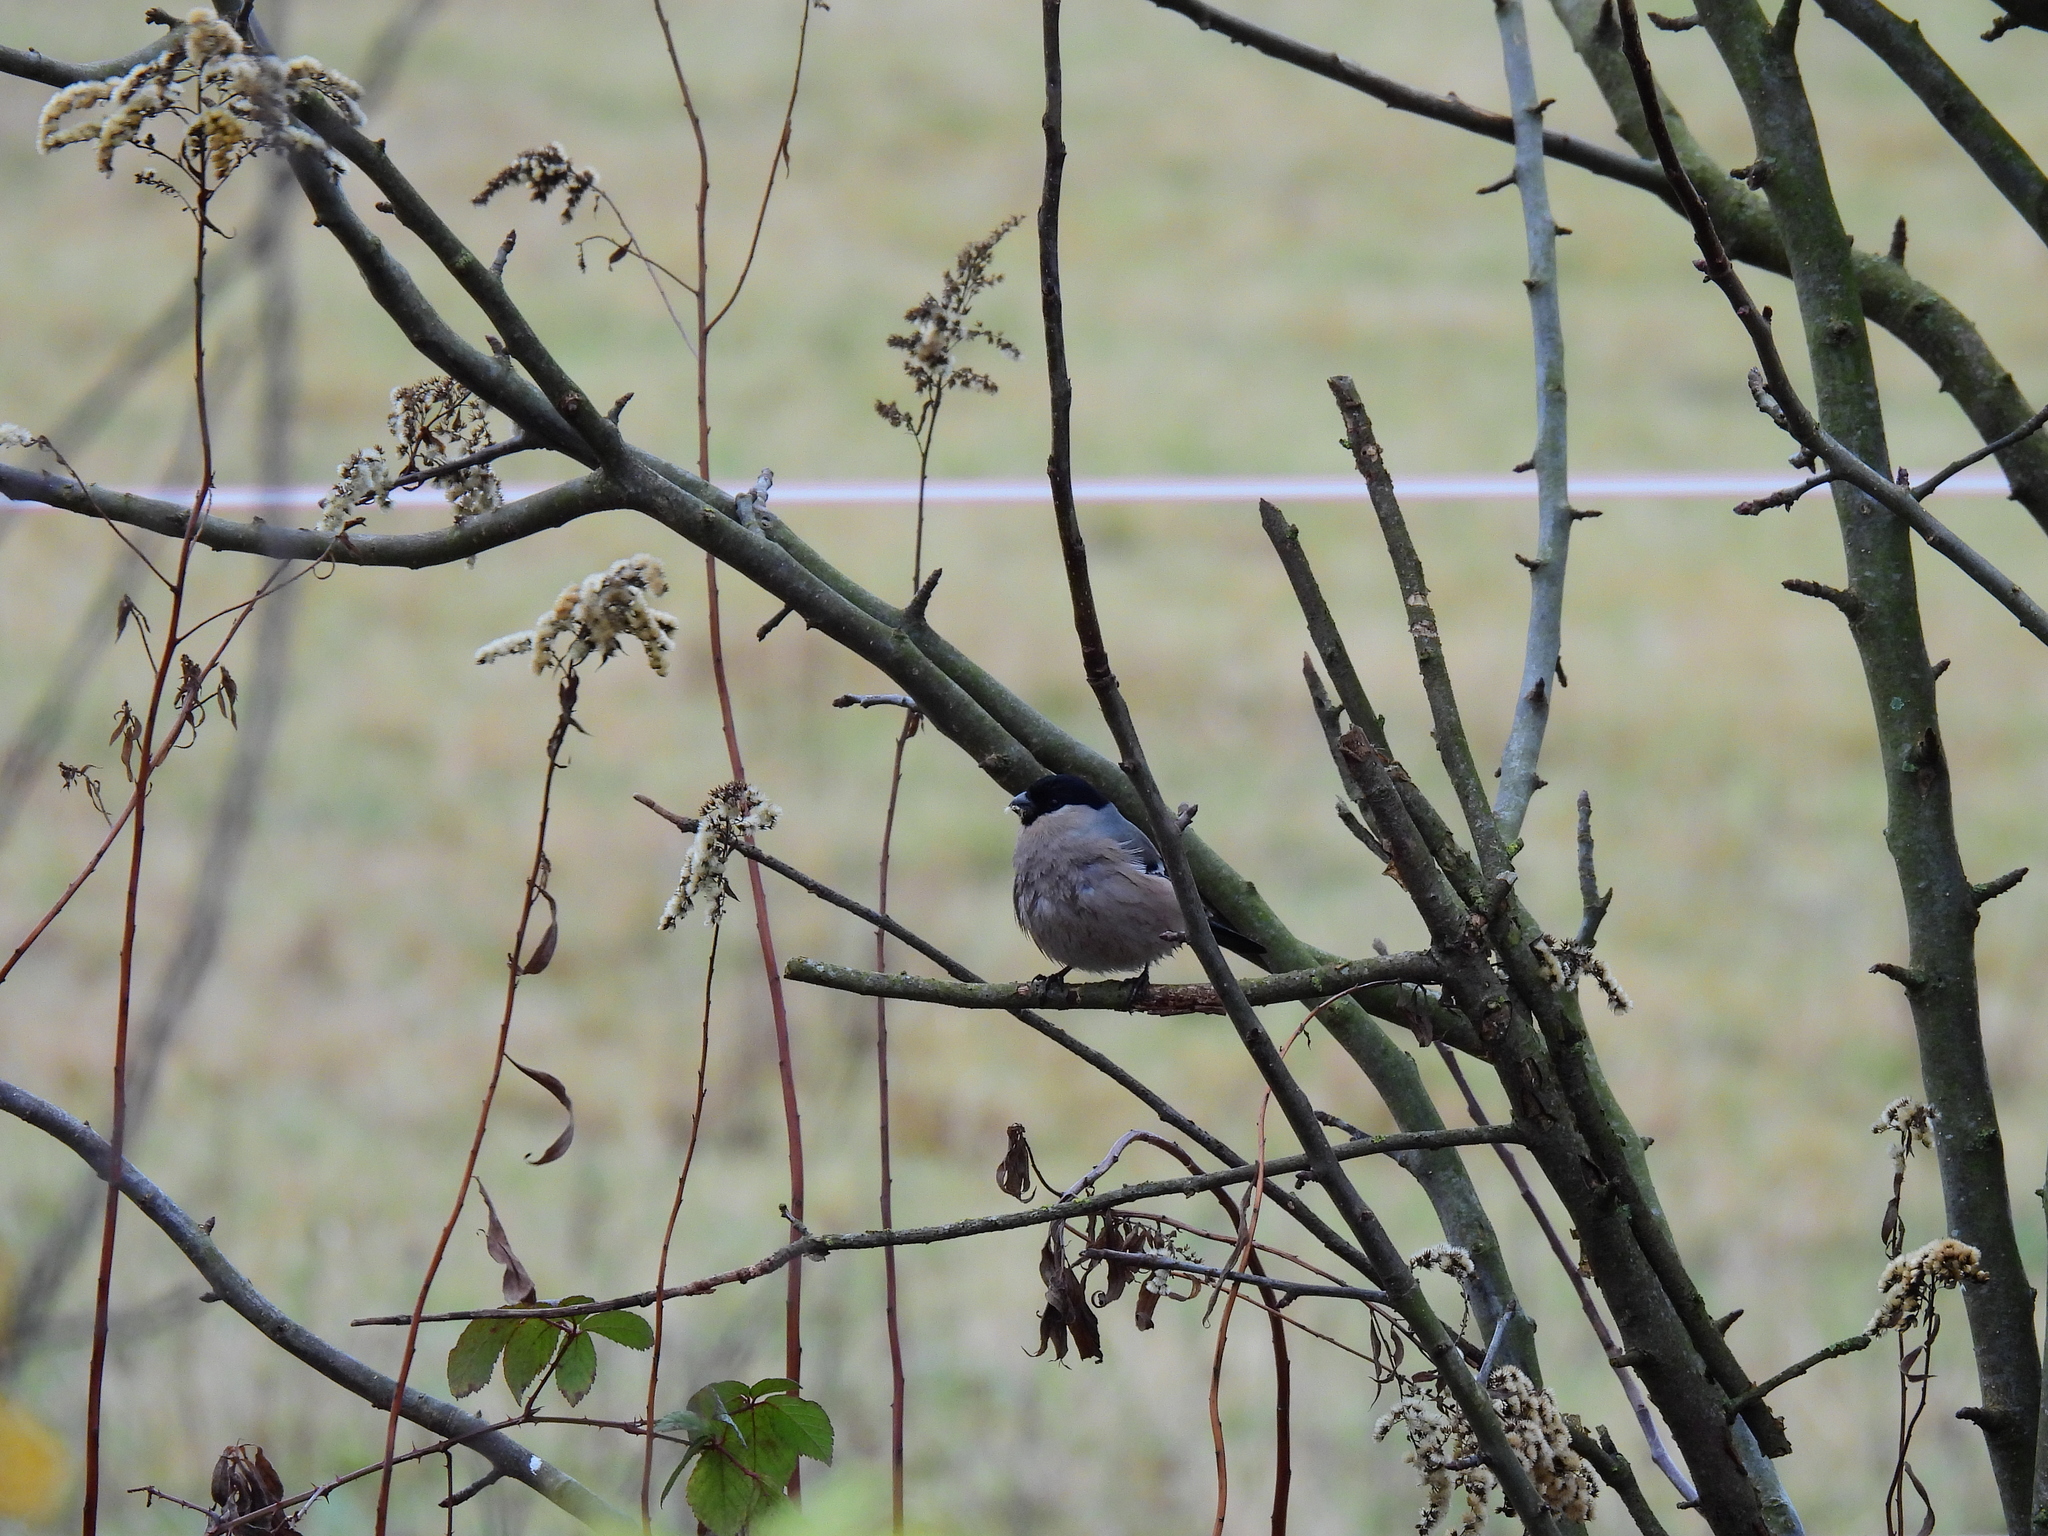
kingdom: Animalia
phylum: Chordata
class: Aves
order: Passeriformes
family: Fringillidae
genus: Pyrrhula
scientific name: Pyrrhula pyrrhula
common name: Eurasian bullfinch
